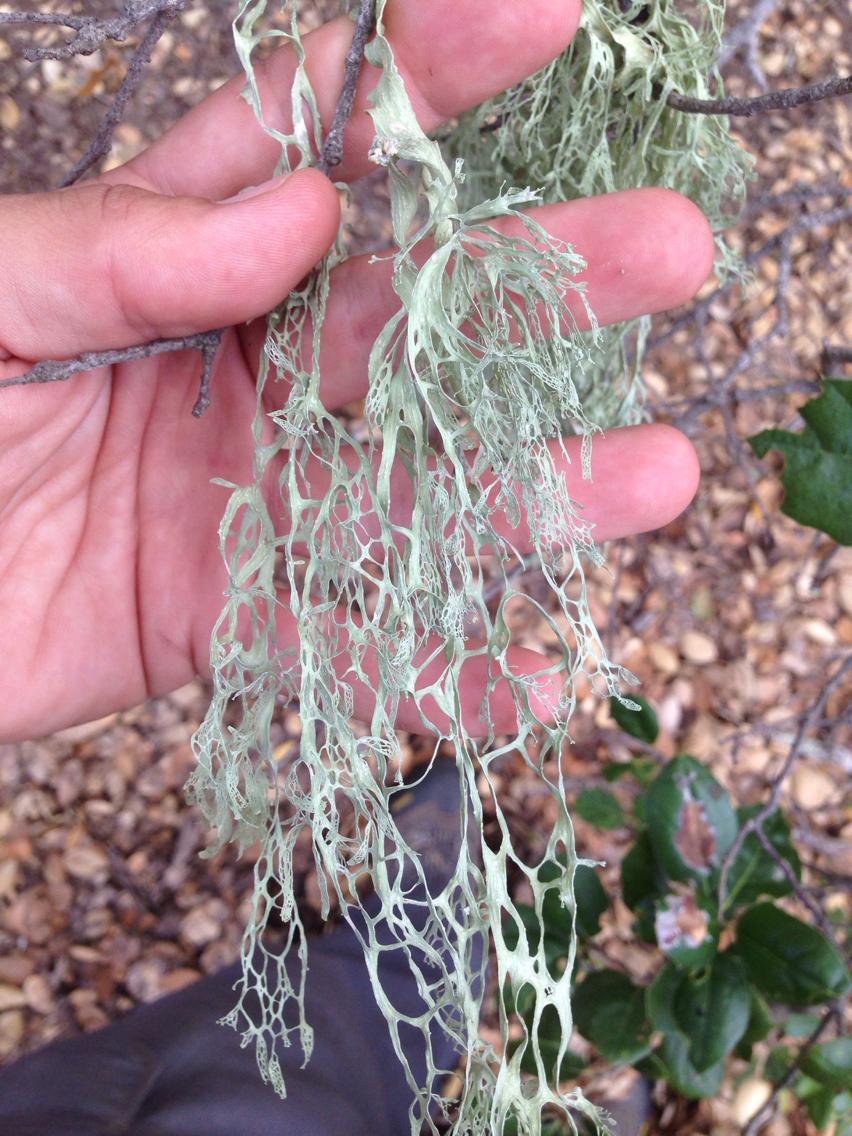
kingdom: Fungi
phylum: Ascomycota
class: Lecanoromycetes
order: Lecanorales
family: Ramalinaceae
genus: Ramalina
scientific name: Ramalina menziesii
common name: Lace lichen
